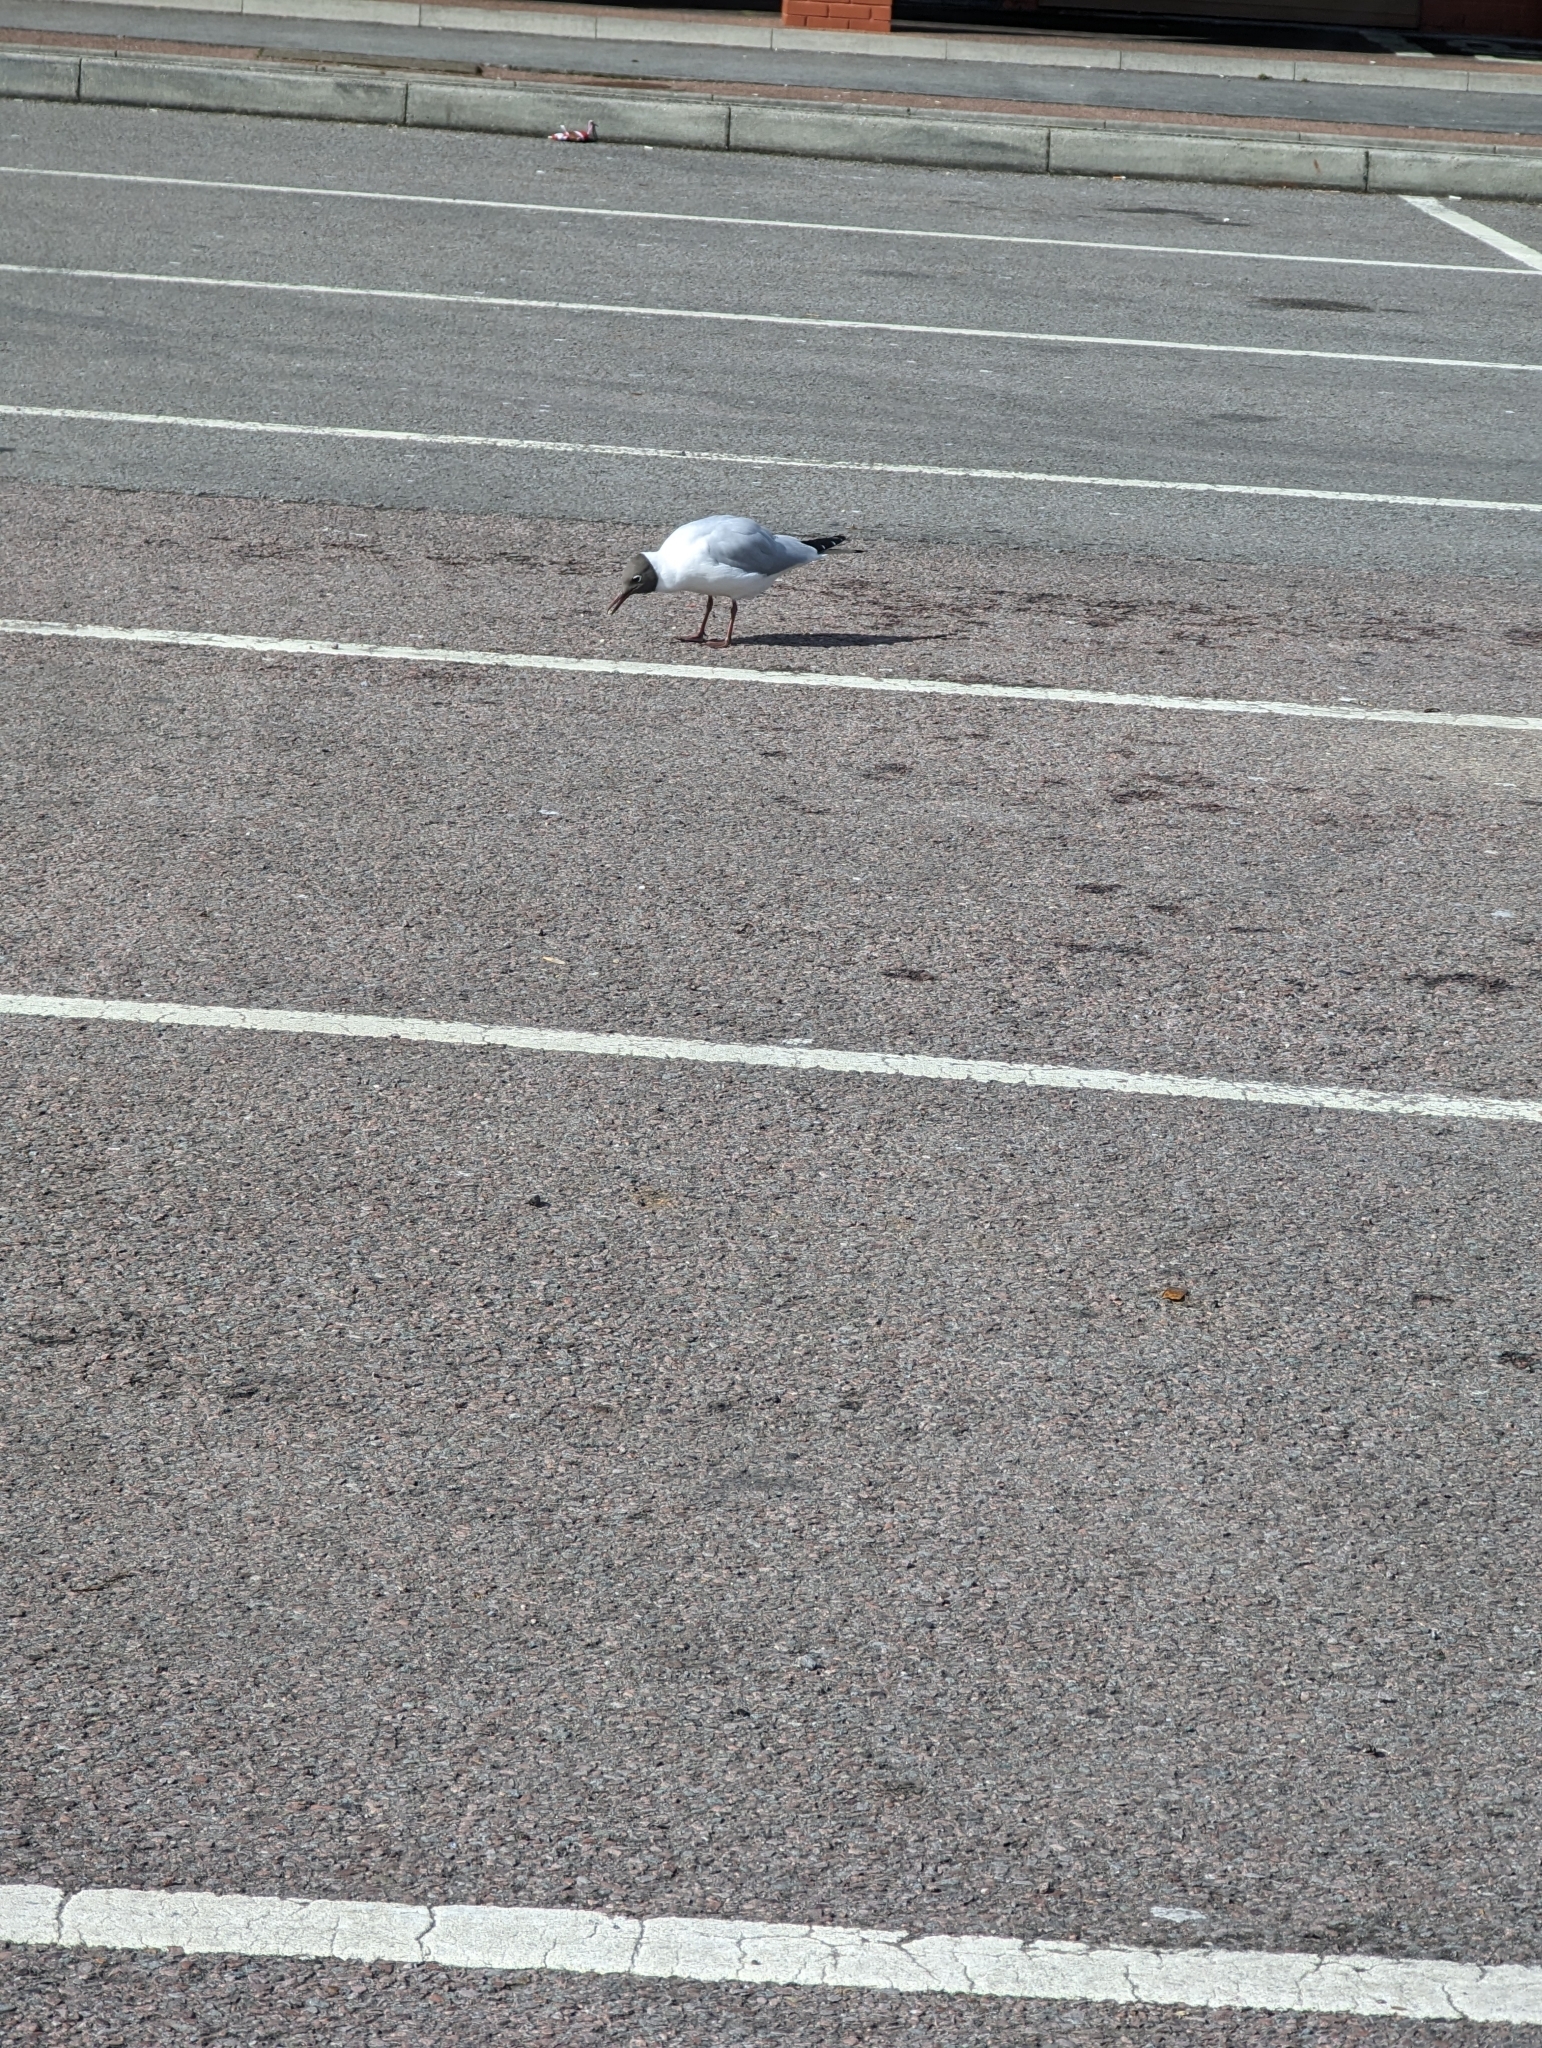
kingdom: Animalia
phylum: Chordata
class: Aves
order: Charadriiformes
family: Laridae
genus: Chroicocephalus
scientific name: Chroicocephalus ridibundus
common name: Black-headed gull
